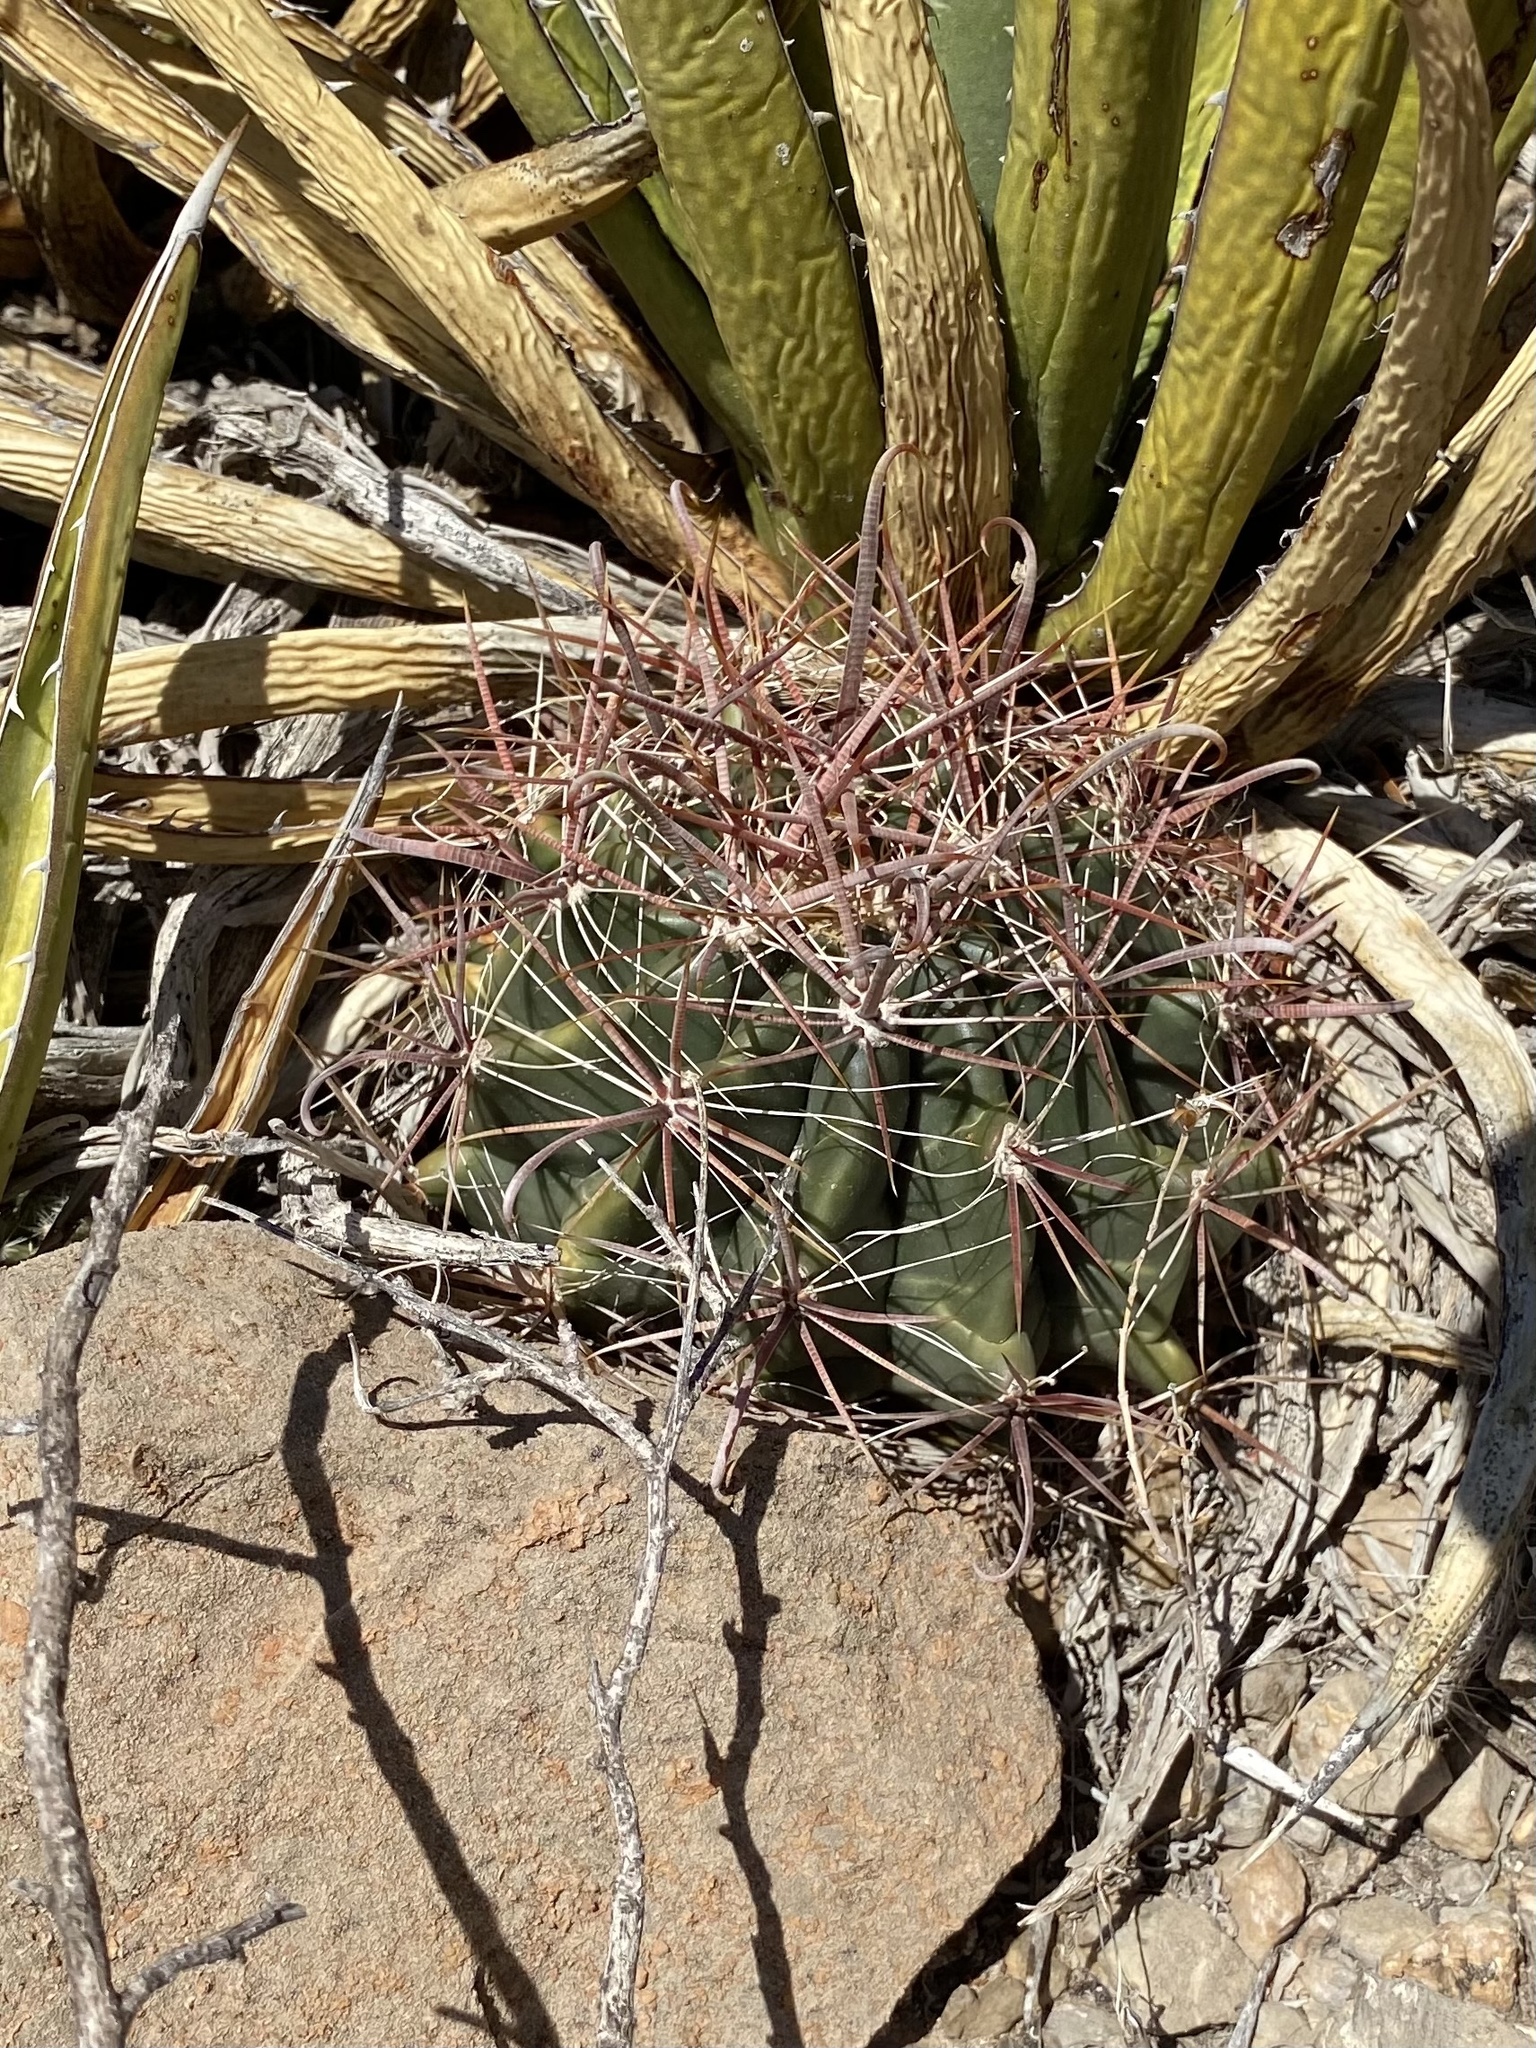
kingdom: Plantae
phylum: Tracheophyta
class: Magnoliopsida
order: Caryophyllales
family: Cactaceae
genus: Ferocactus
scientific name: Ferocactus wislizeni
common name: Candy barrel cactus
